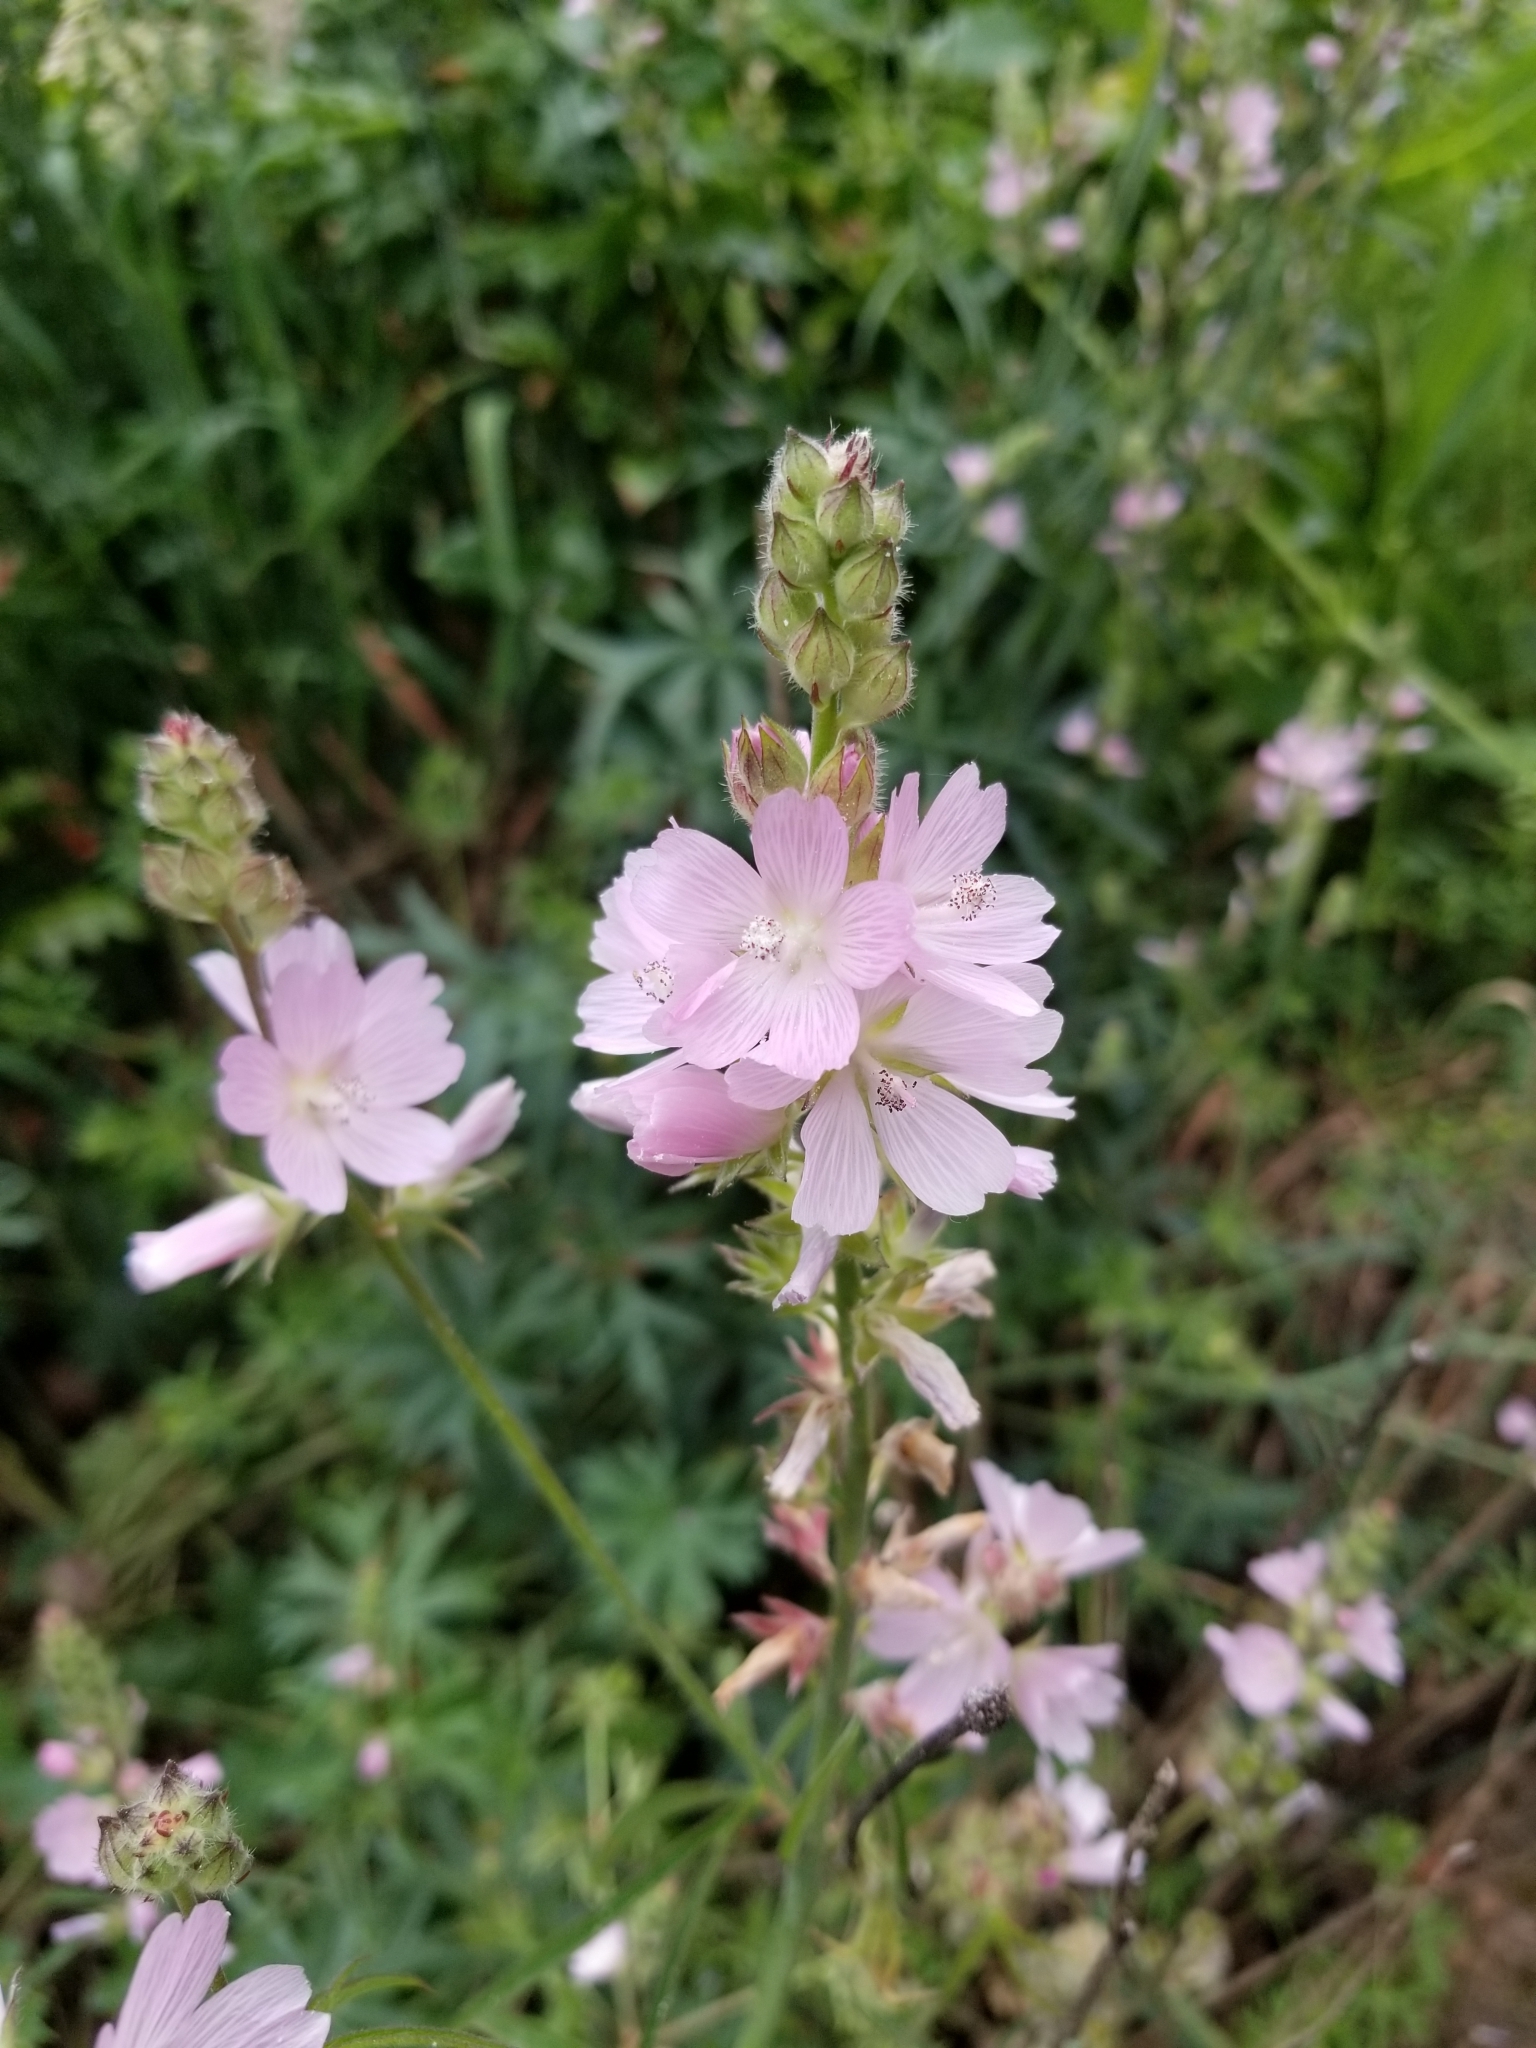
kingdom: Plantae
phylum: Tracheophyta
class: Magnoliopsida
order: Malvales
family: Malvaceae
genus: Sidalcea
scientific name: Sidalcea campestris
